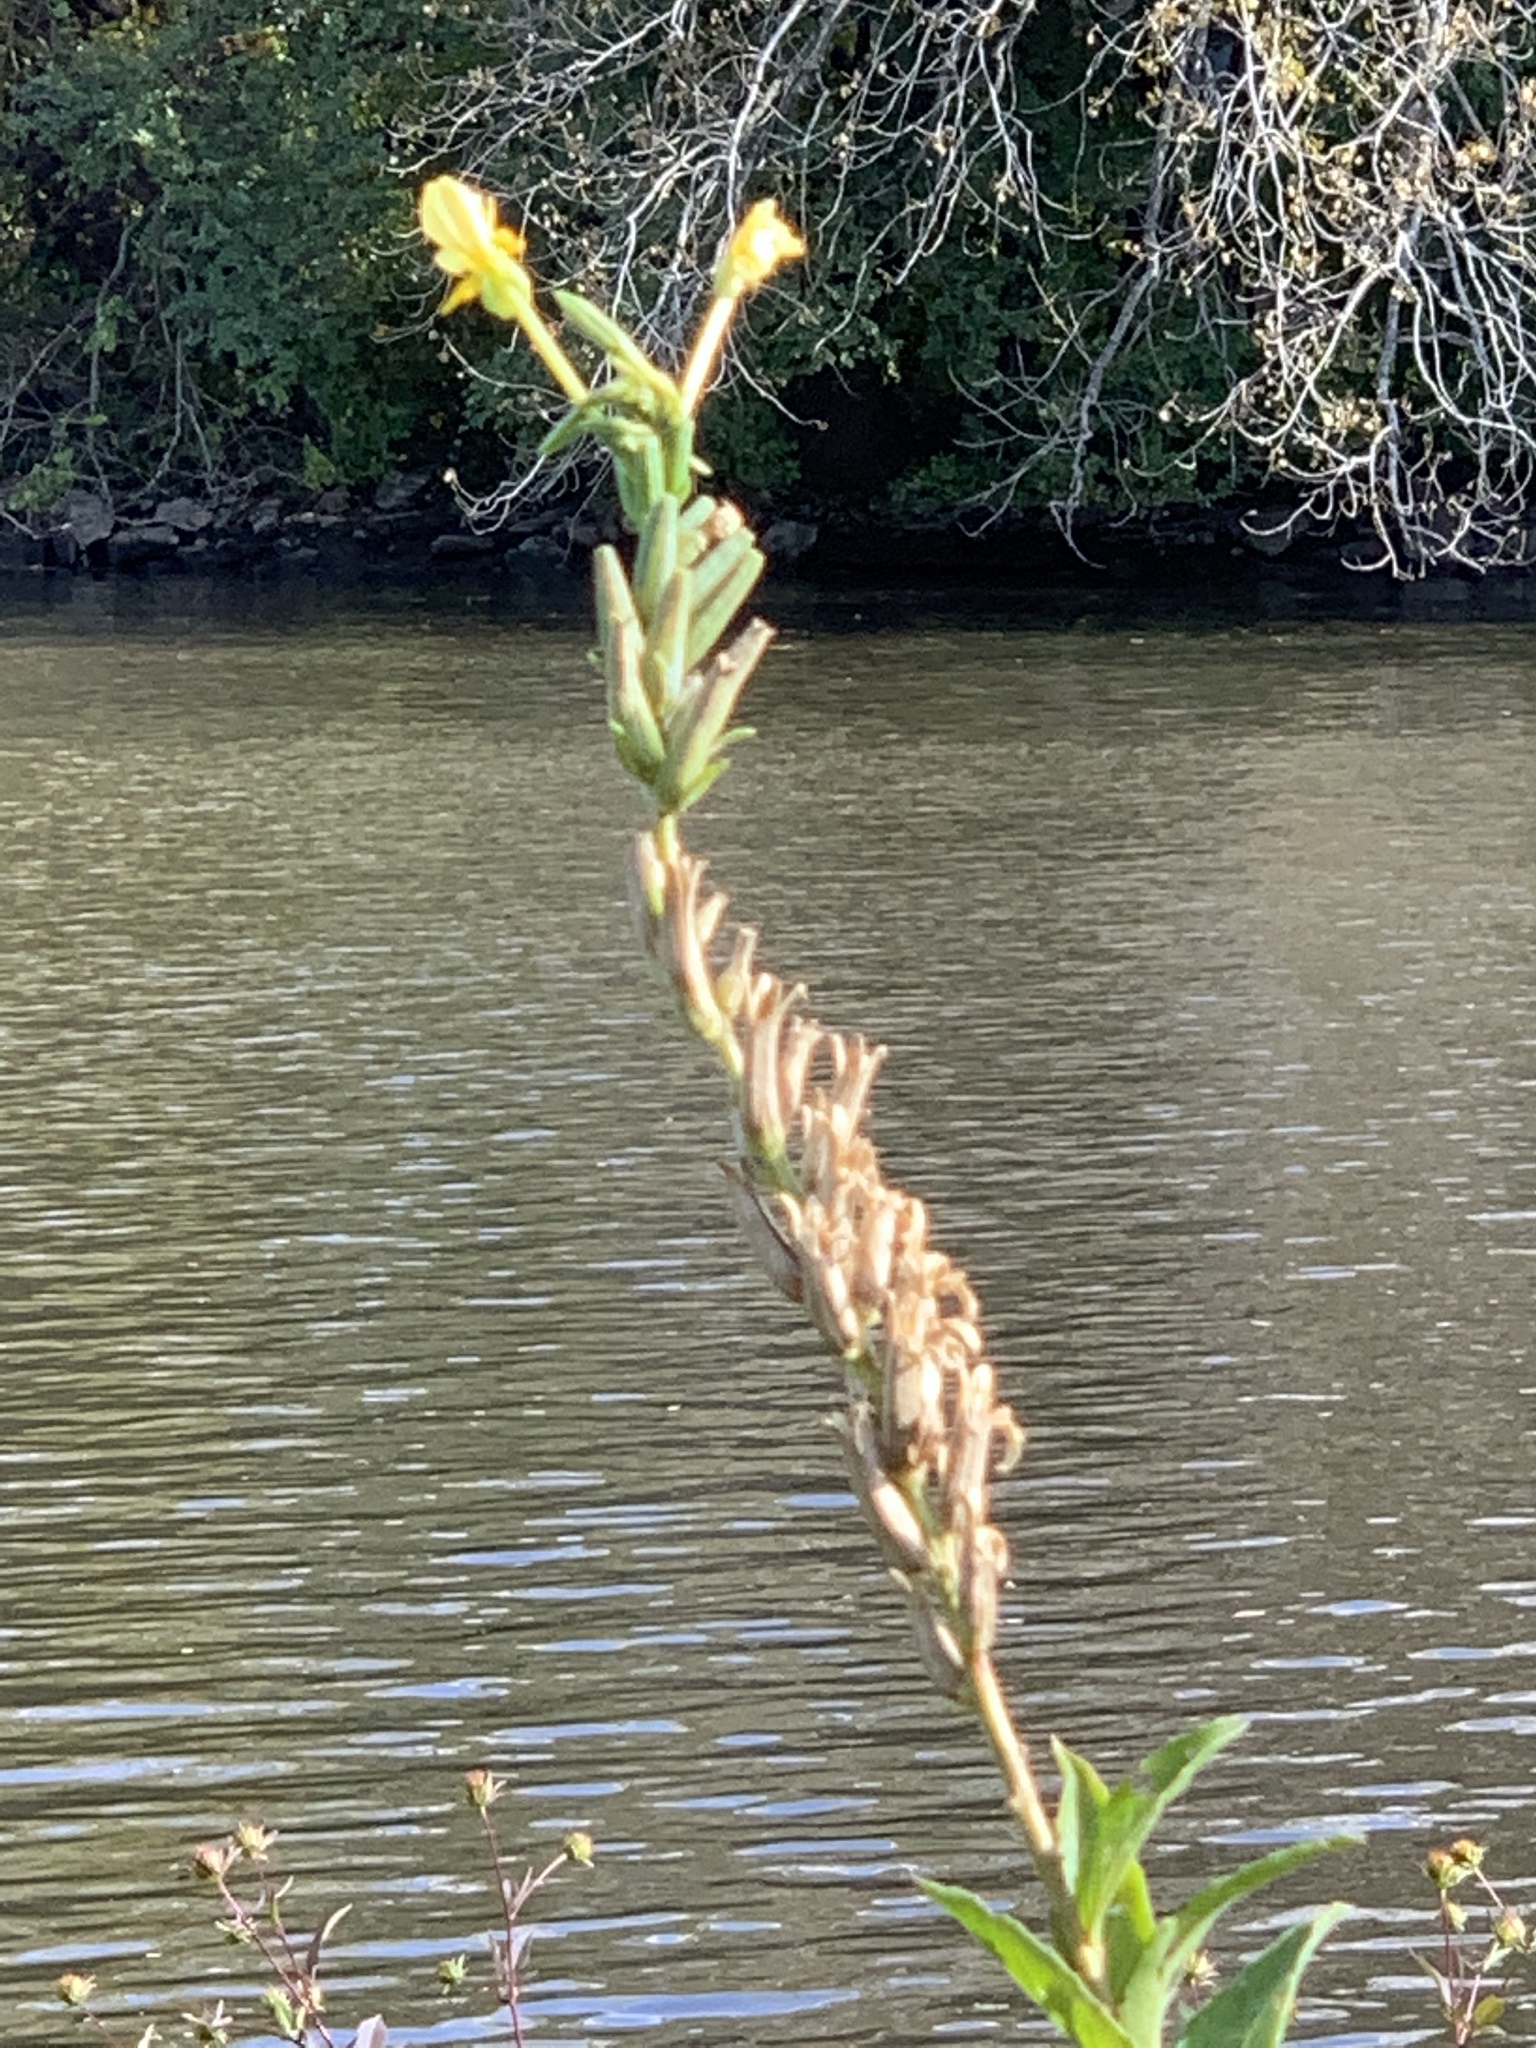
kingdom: Plantae
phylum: Tracheophyta
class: Magnoliopsida
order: Myrtales
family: Onagraceae
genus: Oenothera
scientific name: Oenothera biennis
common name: Common evening-primrose
